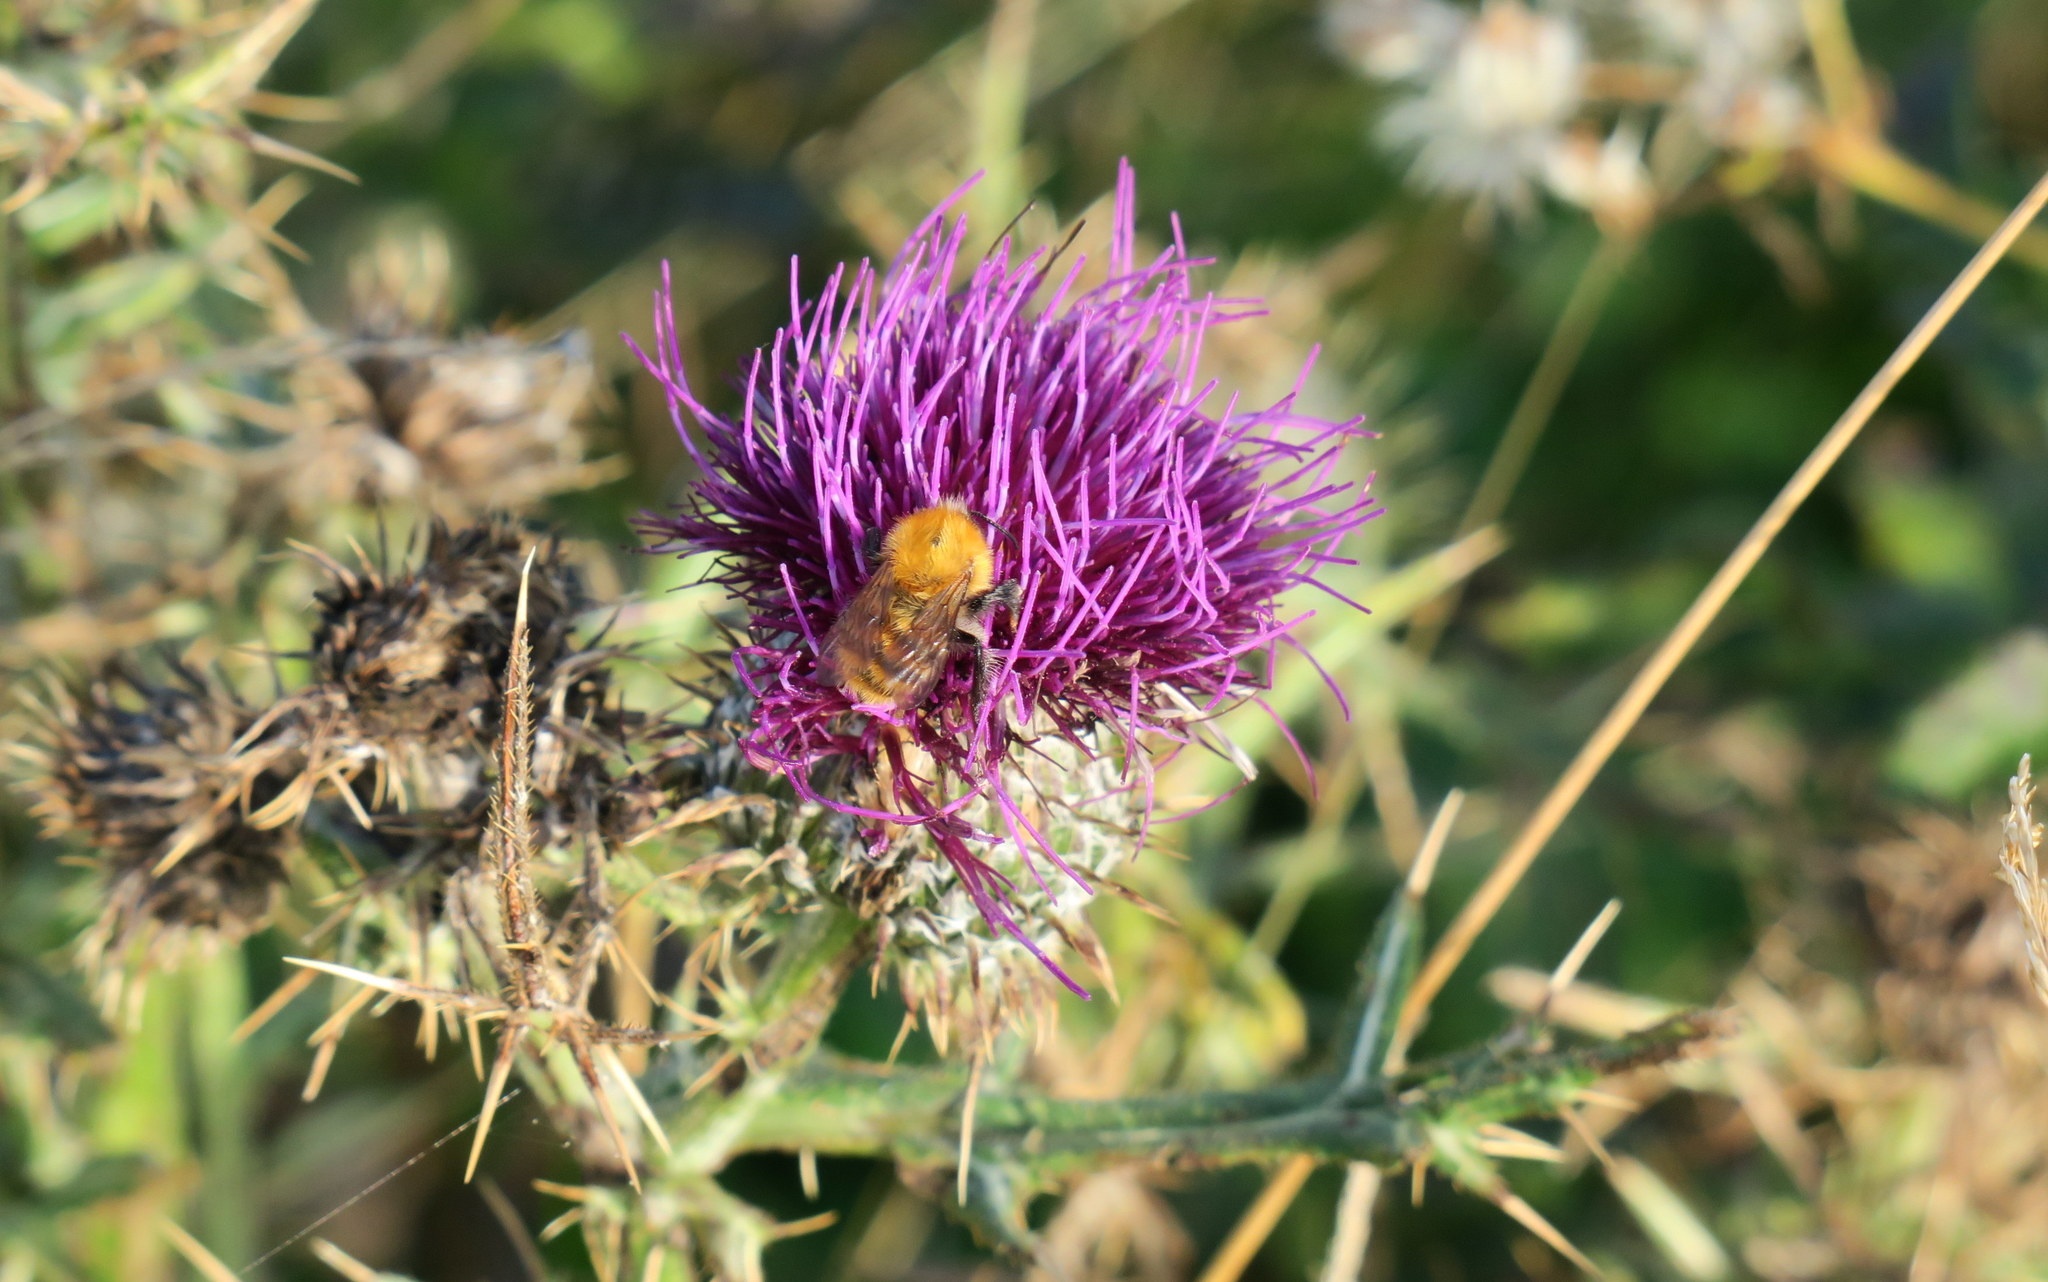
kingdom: Animalia
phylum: Arthropoda
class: Insecta
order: Hymenoptera
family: Apidae
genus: Bombus
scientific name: Bombus pascuorum
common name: Common carder bee
